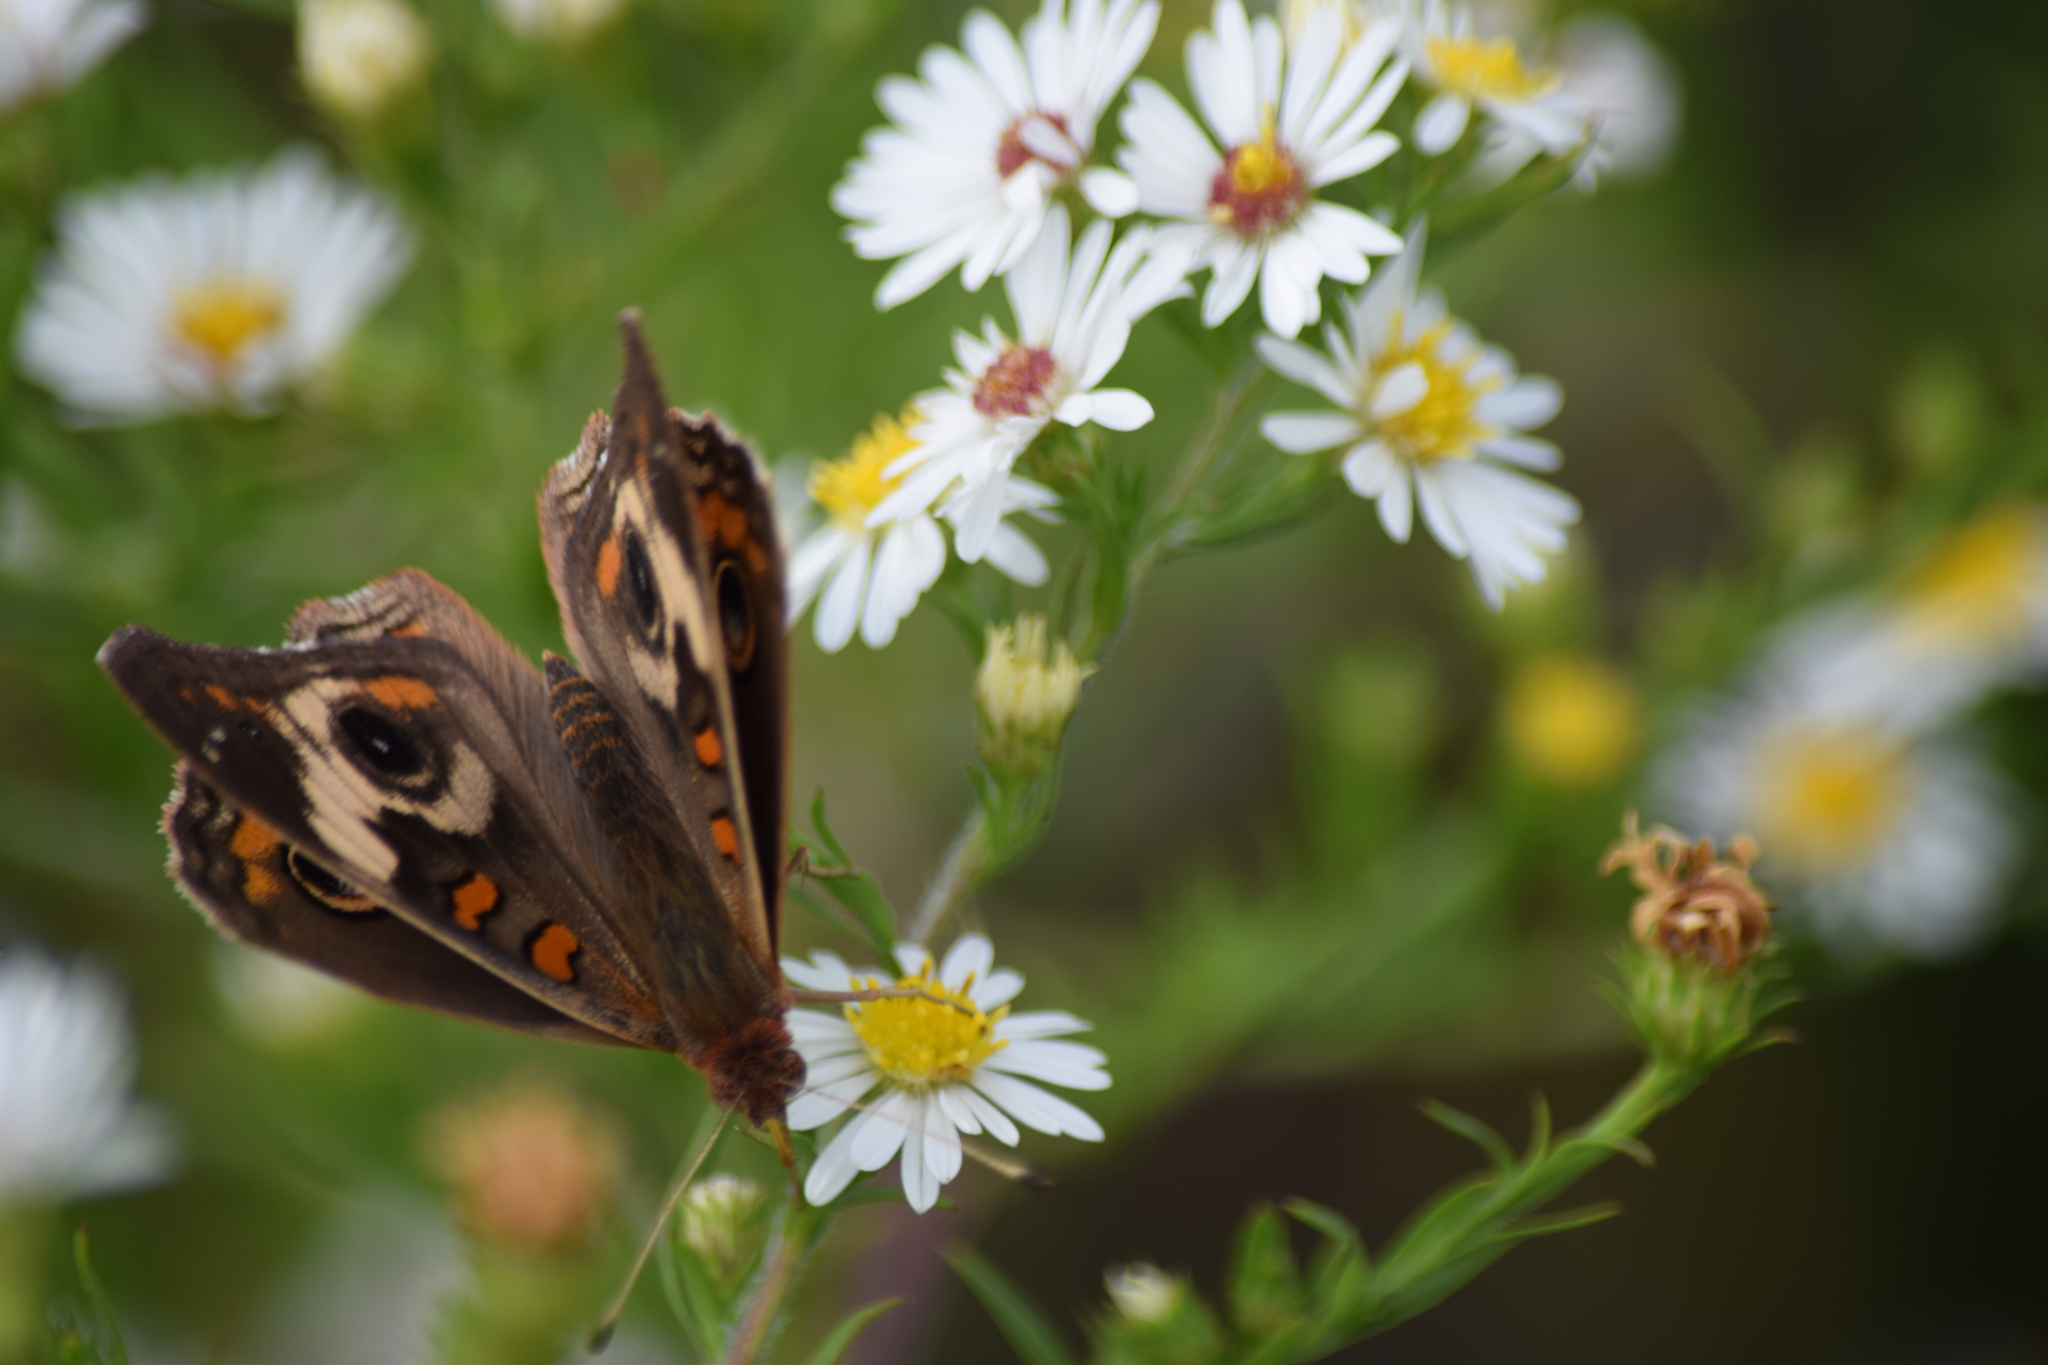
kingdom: Animalia
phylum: Arthropoda
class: Insecta
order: Lepidoptera
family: Nymphalidae
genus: Junonia
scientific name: Junonia coenia
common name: Common buckeye
